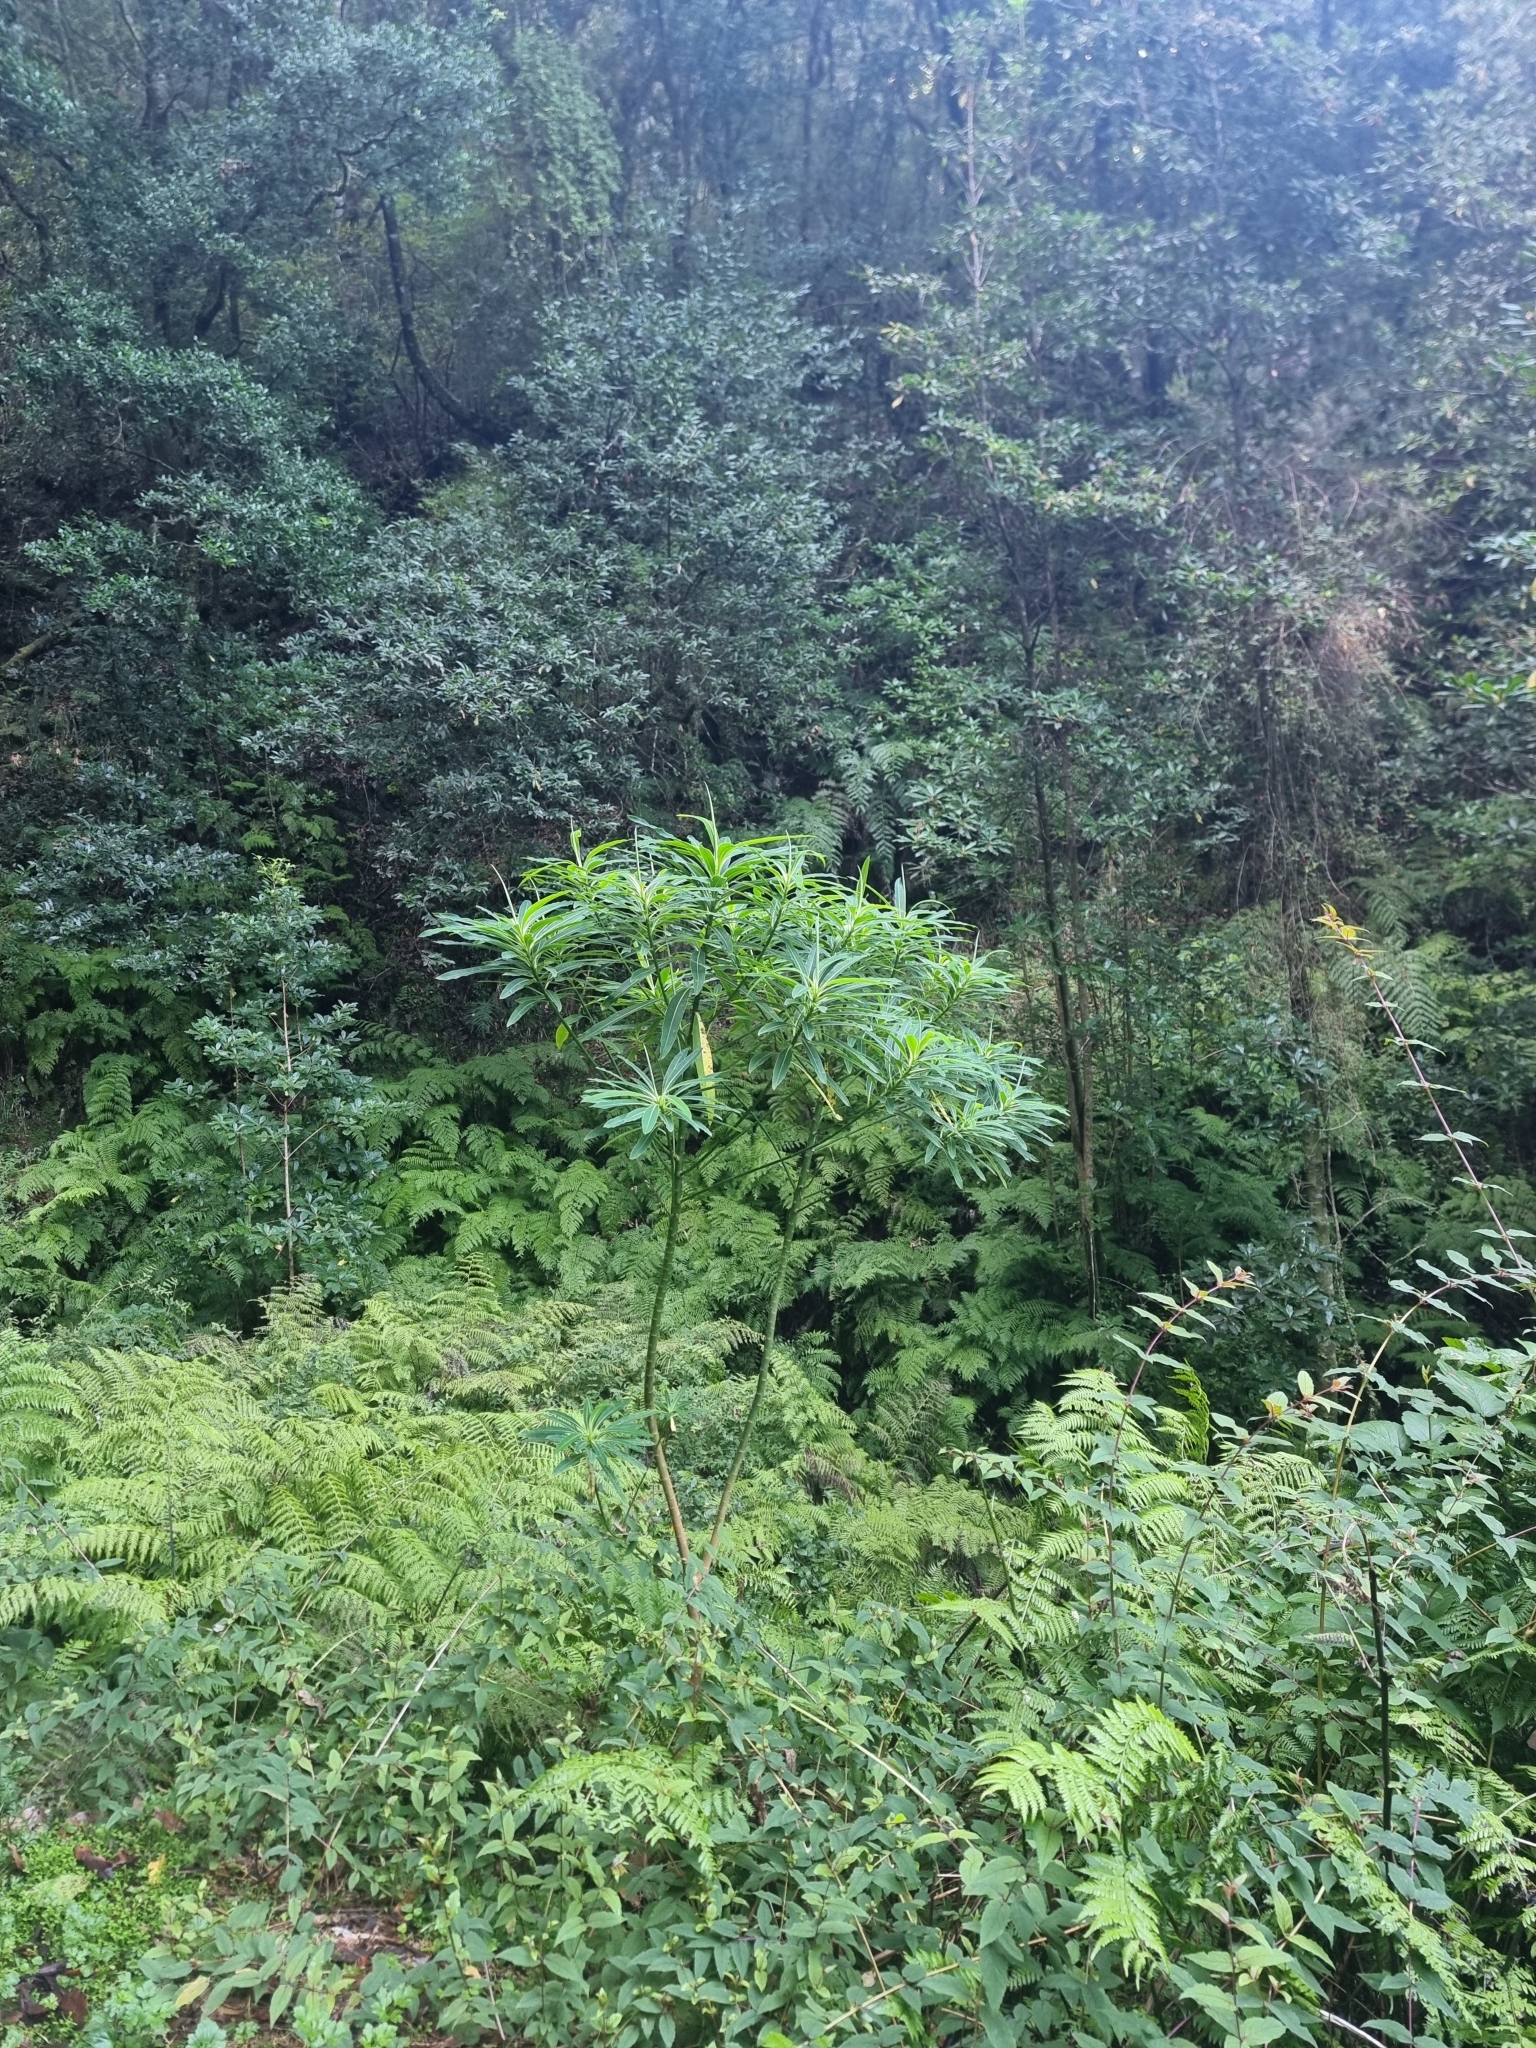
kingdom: Plantae
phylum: Tracheophyta
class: Magnoliopsida
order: Malpighiales
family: Euphorbiaceae
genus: Euphorbia
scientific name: Euphorbia mellifera
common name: Canary spurge
